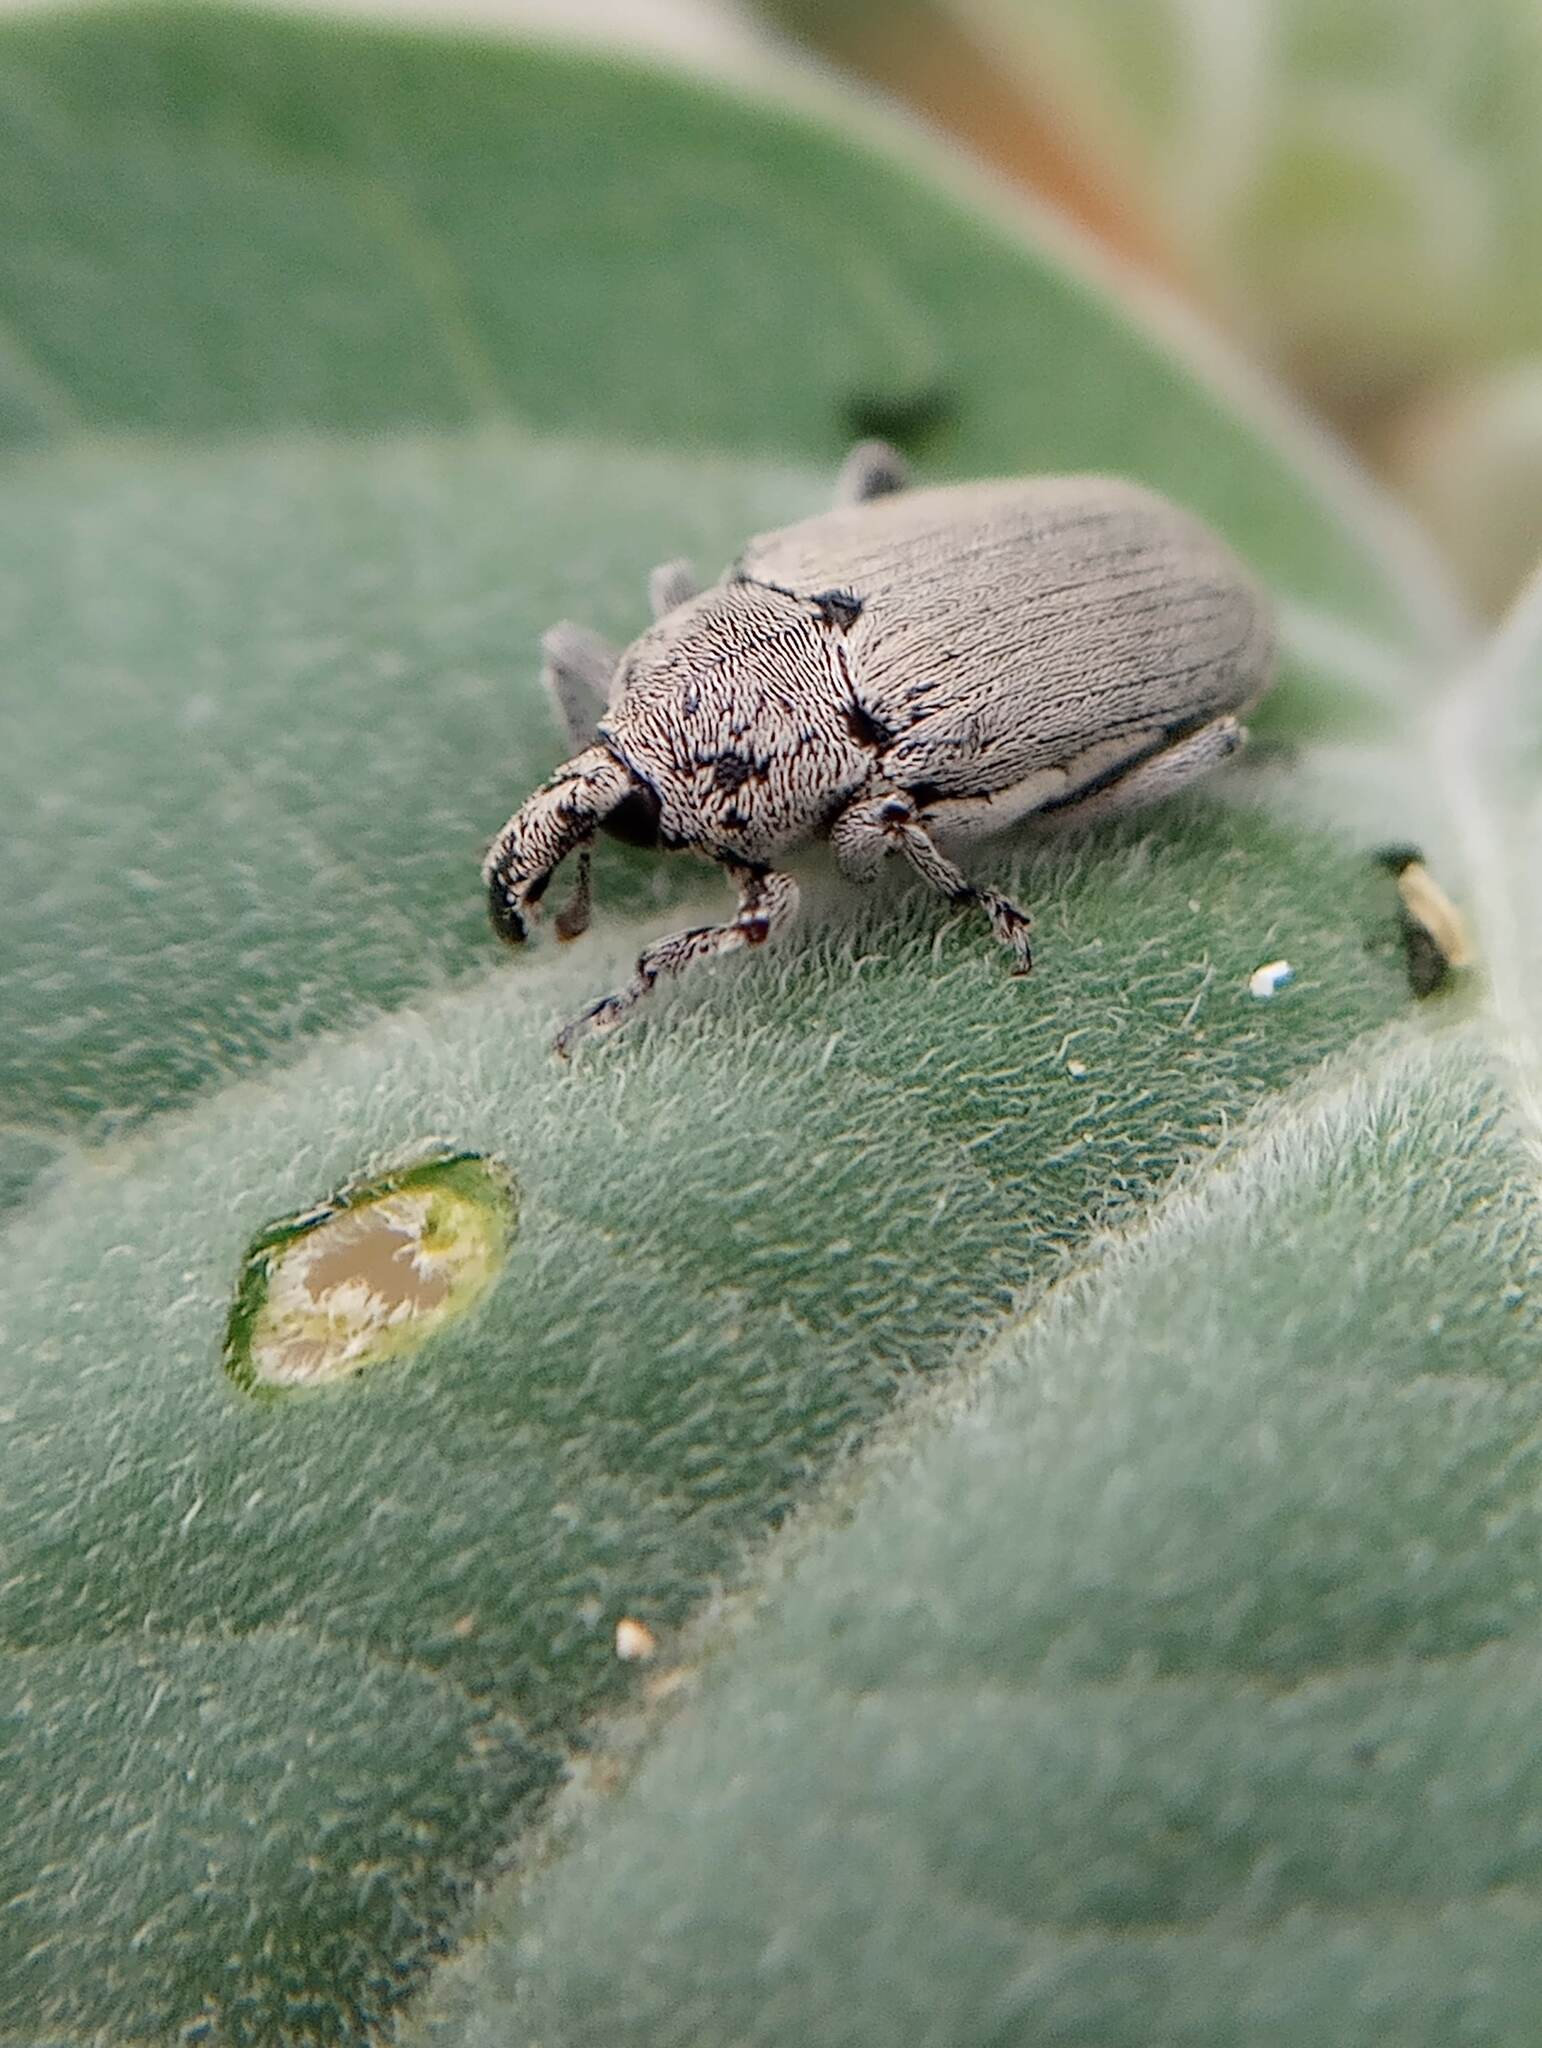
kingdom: Animalia
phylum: Arthropoda
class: Insecta
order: Coleoptera
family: Curculionidae
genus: Trichobaris
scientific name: Trichobaris compacta
